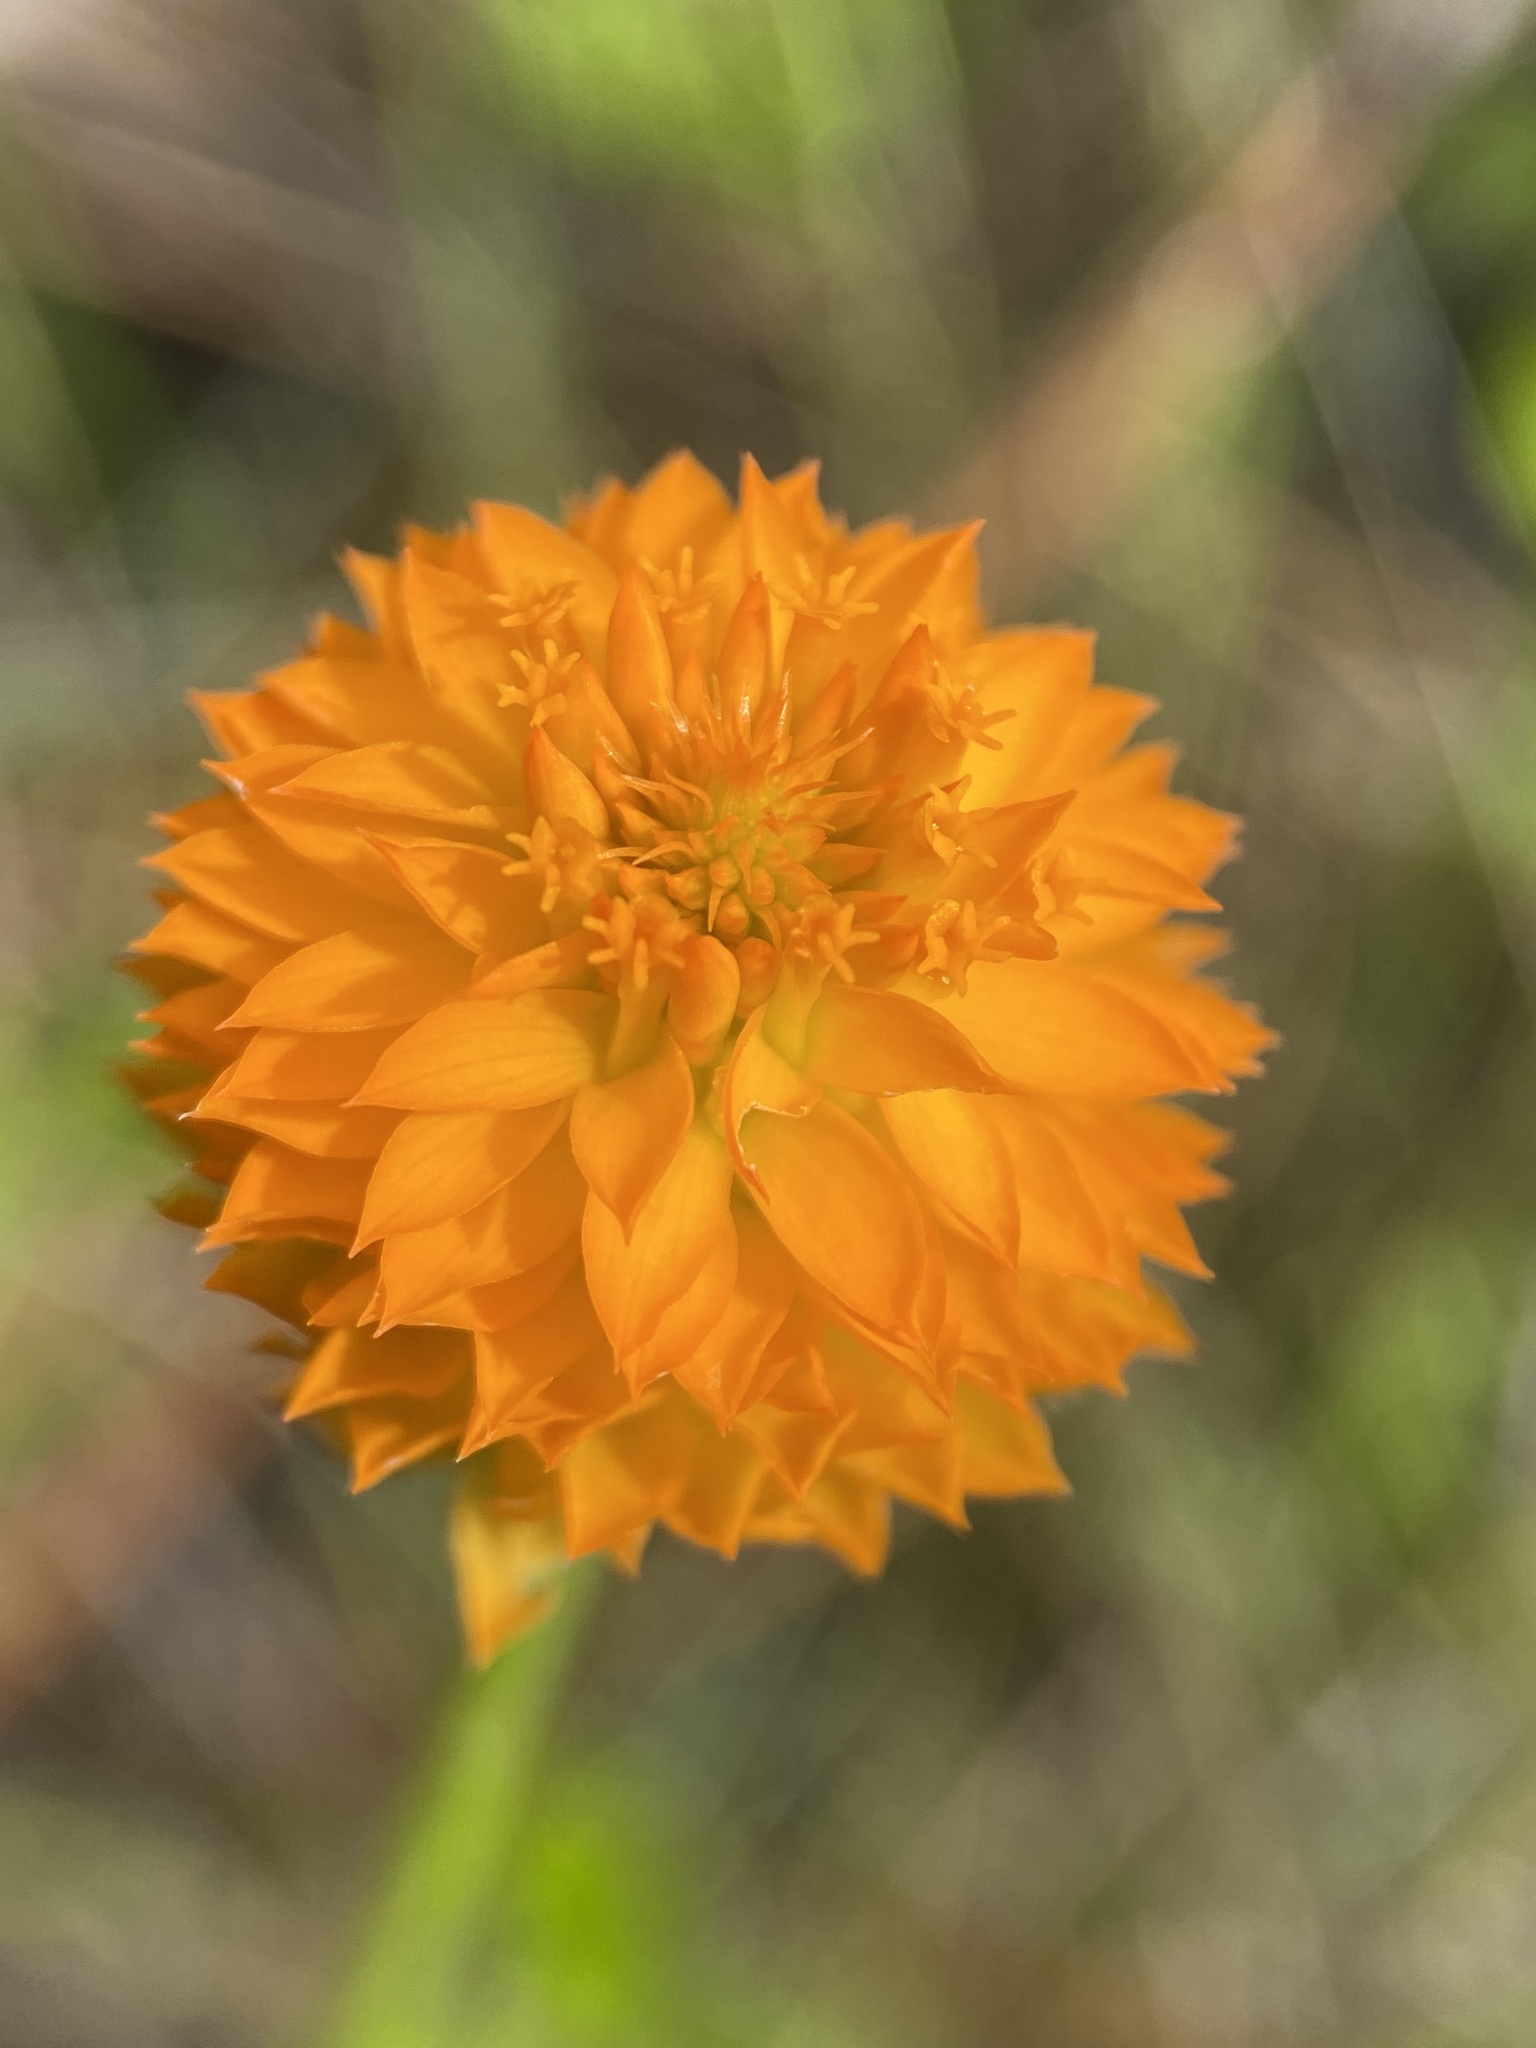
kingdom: Plantae
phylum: Tracheophyta
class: Magnoliopsida
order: Fabales
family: Polygalaceae
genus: Polygala
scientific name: Polygala lutea
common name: Orange milkwort
